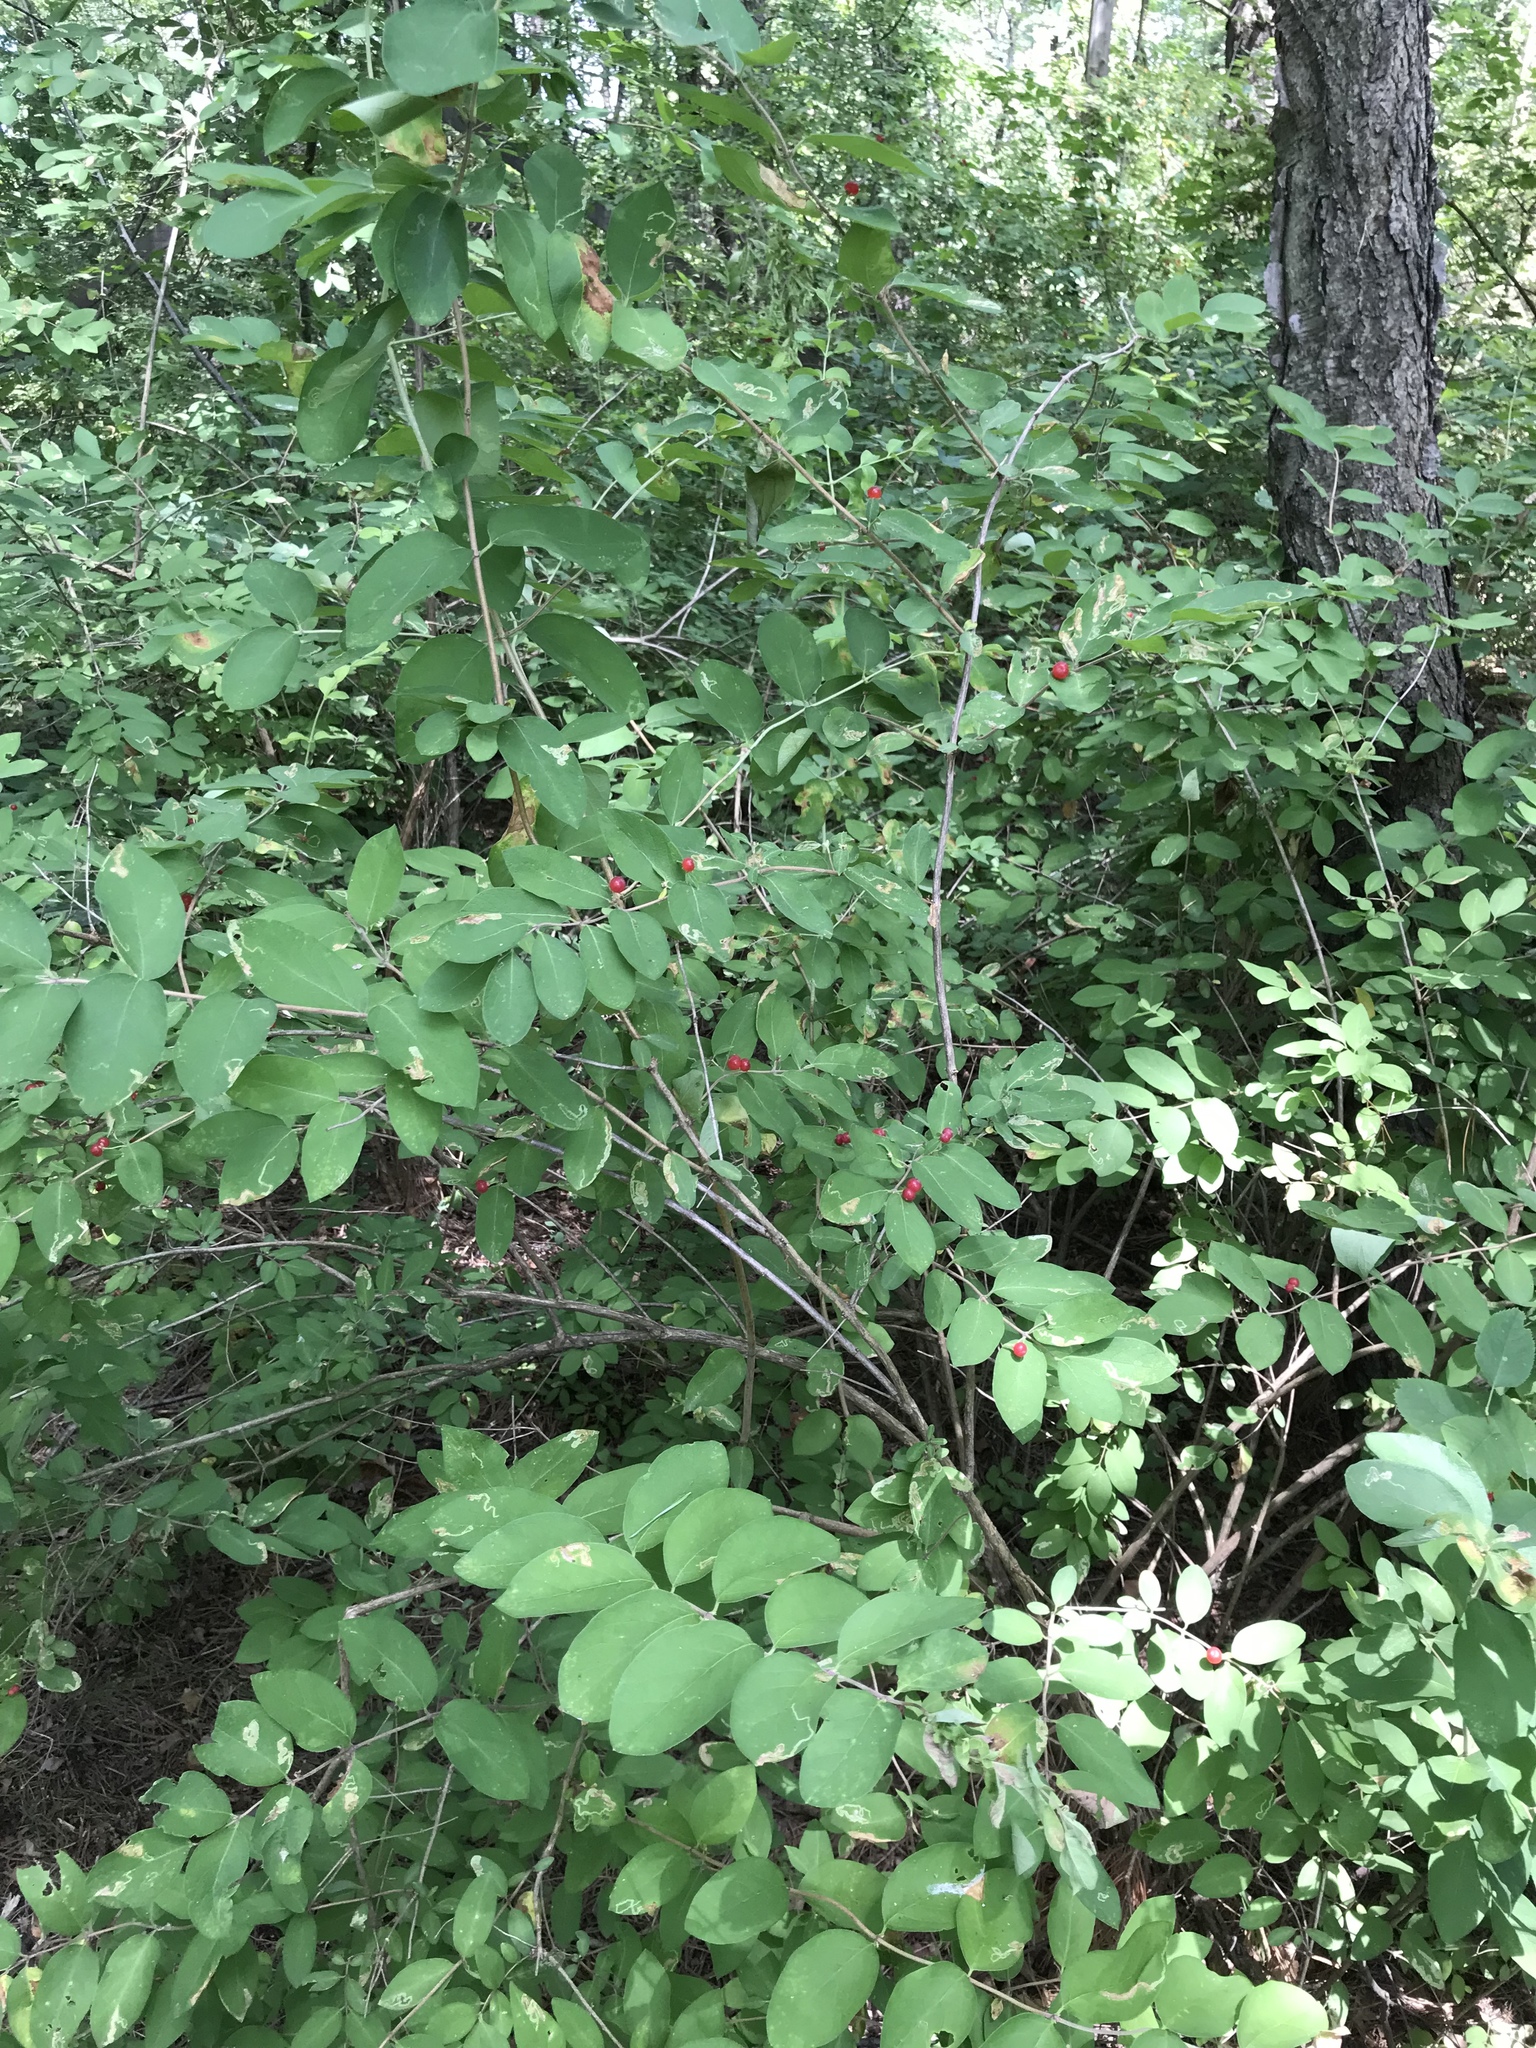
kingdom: Plantae
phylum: Tracheophyta
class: Magnoliopsida
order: Dipsacales
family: Caprifoliaceae
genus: Lonicera
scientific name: Lonicera morrowii
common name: Morrow's honeysuckle
